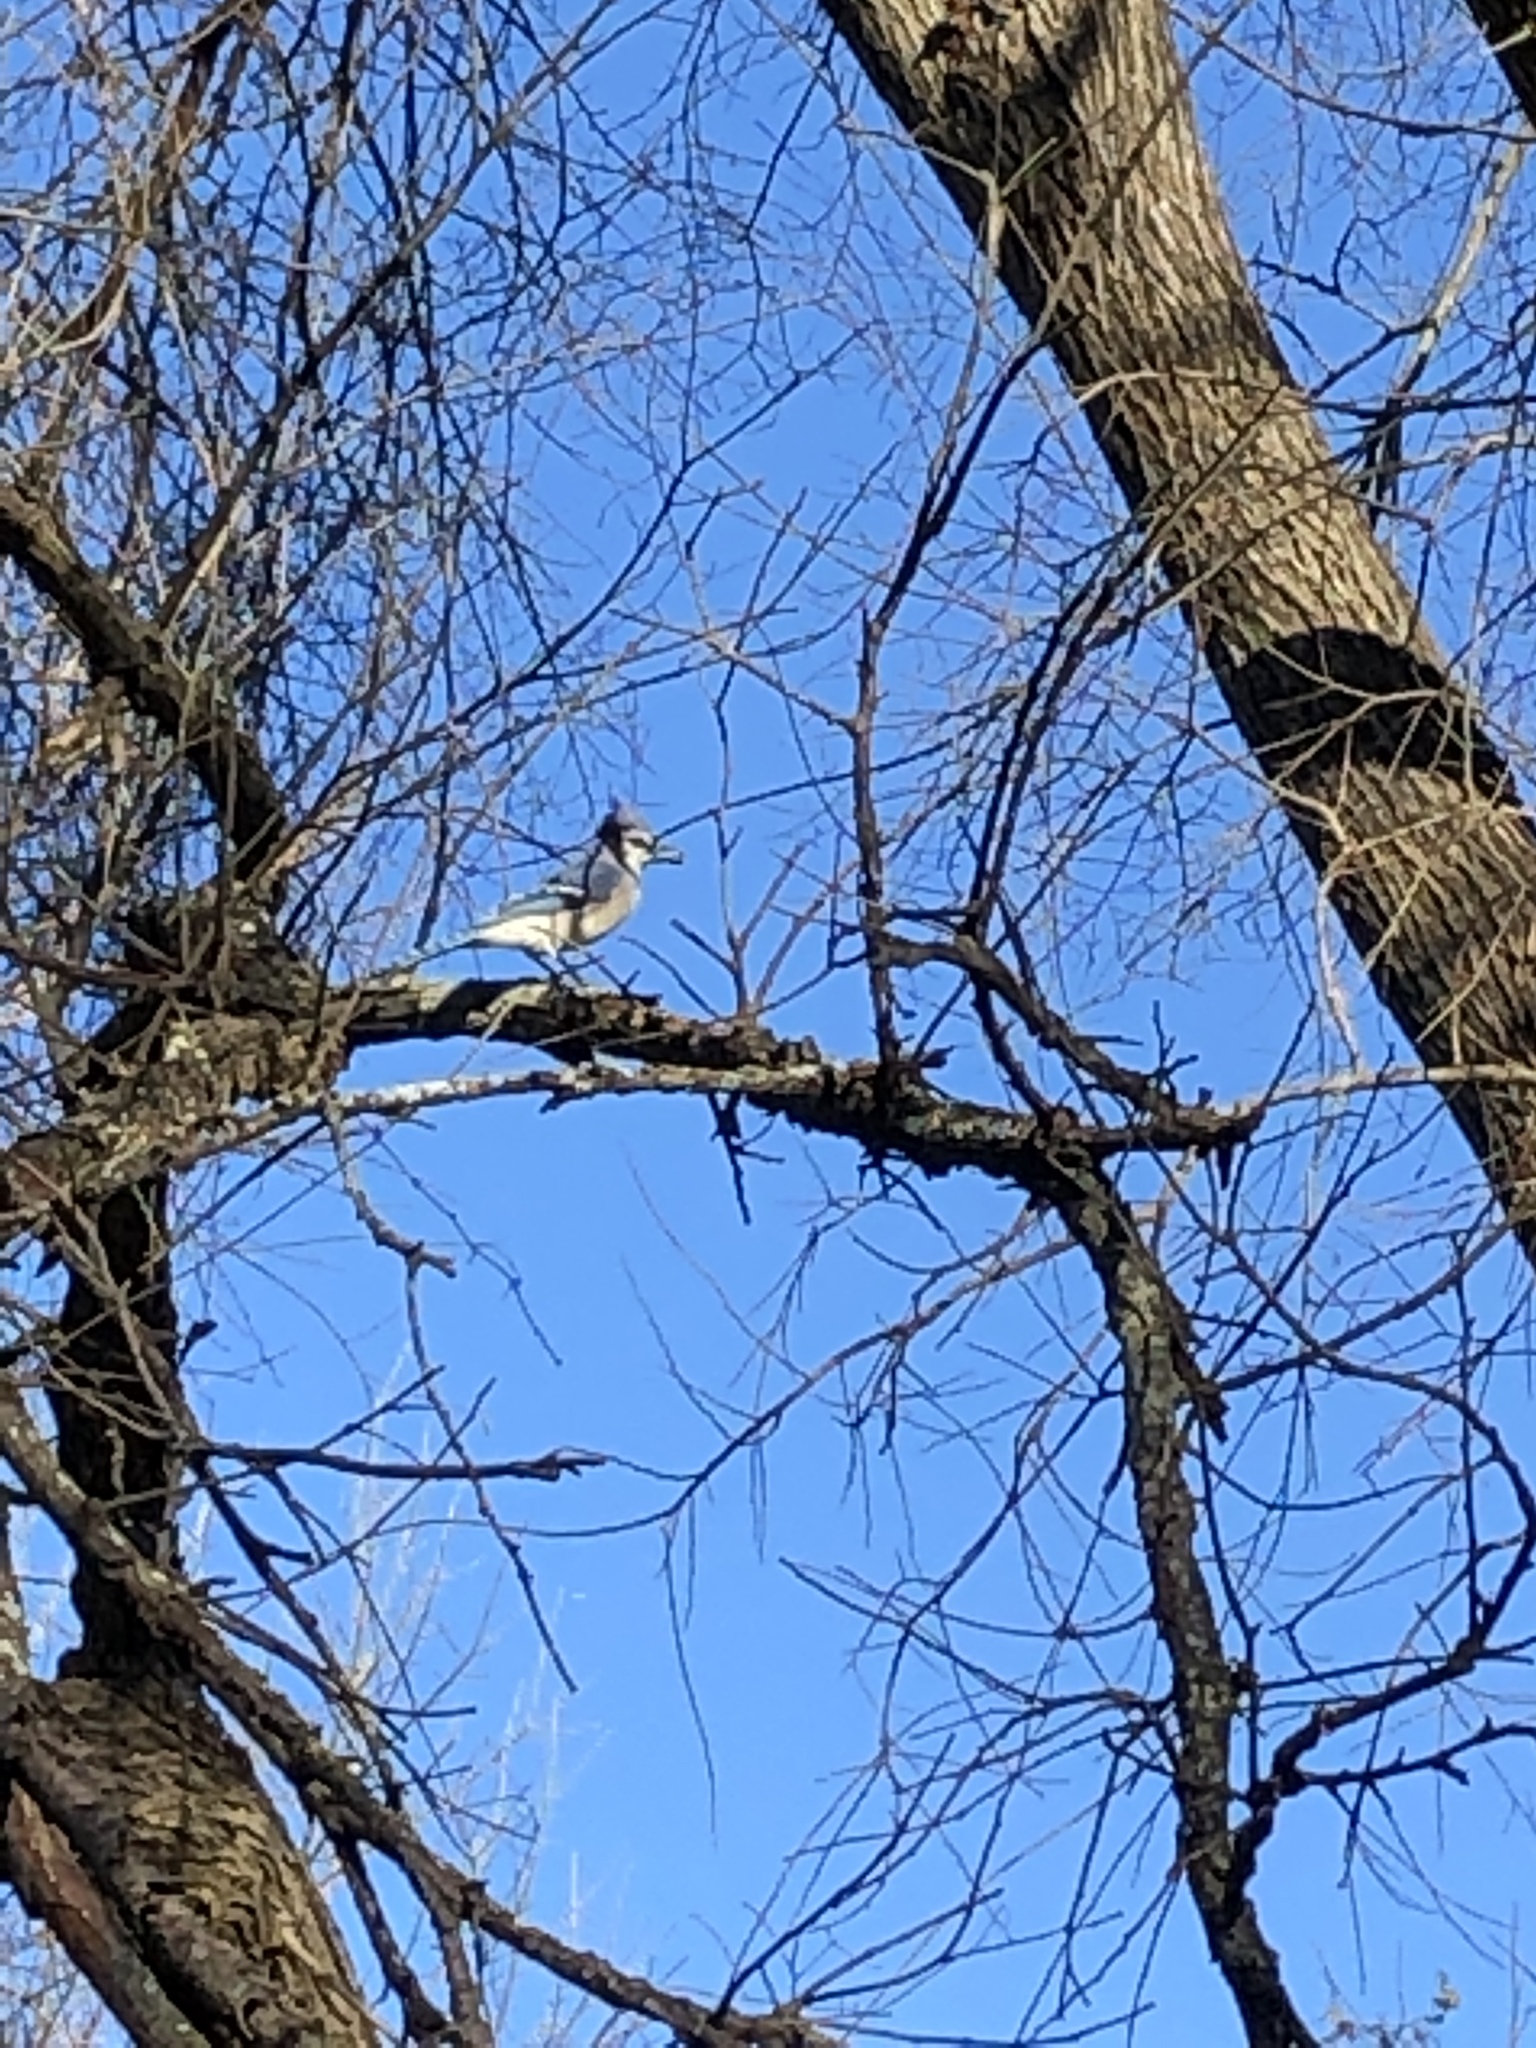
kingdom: Animalia
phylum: Chordata
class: Aves
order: Passeriformes
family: Corvidae
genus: Cyanocitta
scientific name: Cyanocitta cristata
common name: Blue jay
